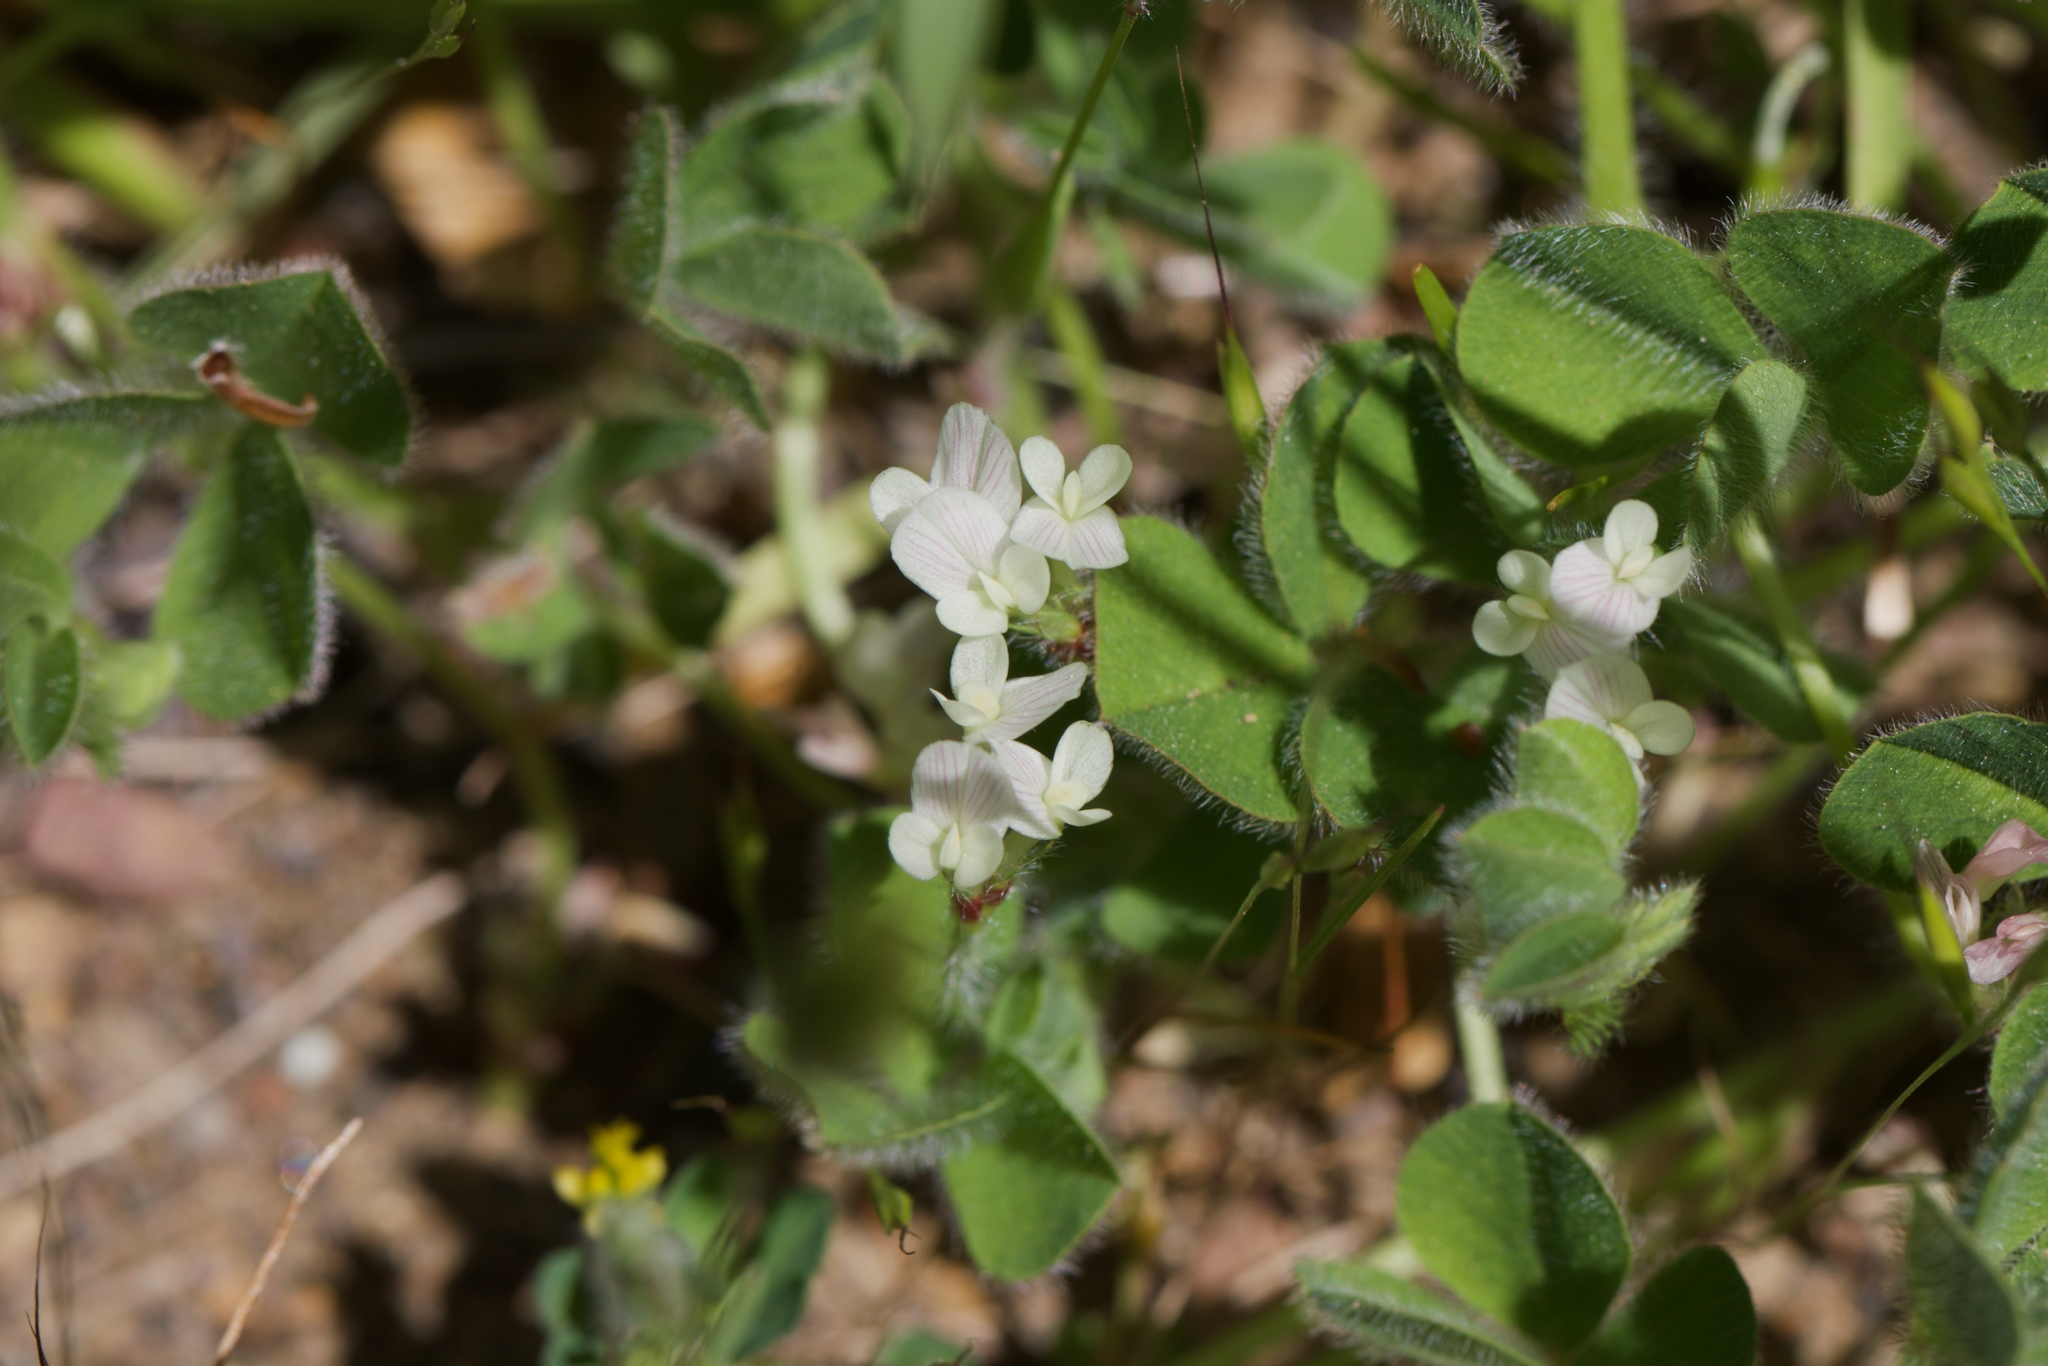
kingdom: Plantae
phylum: Tracheophyta
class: Magnoliopsida
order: Fabales
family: Fabaceae
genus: Trifolium
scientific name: Trifolium subterraneum
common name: Subterranean clover
